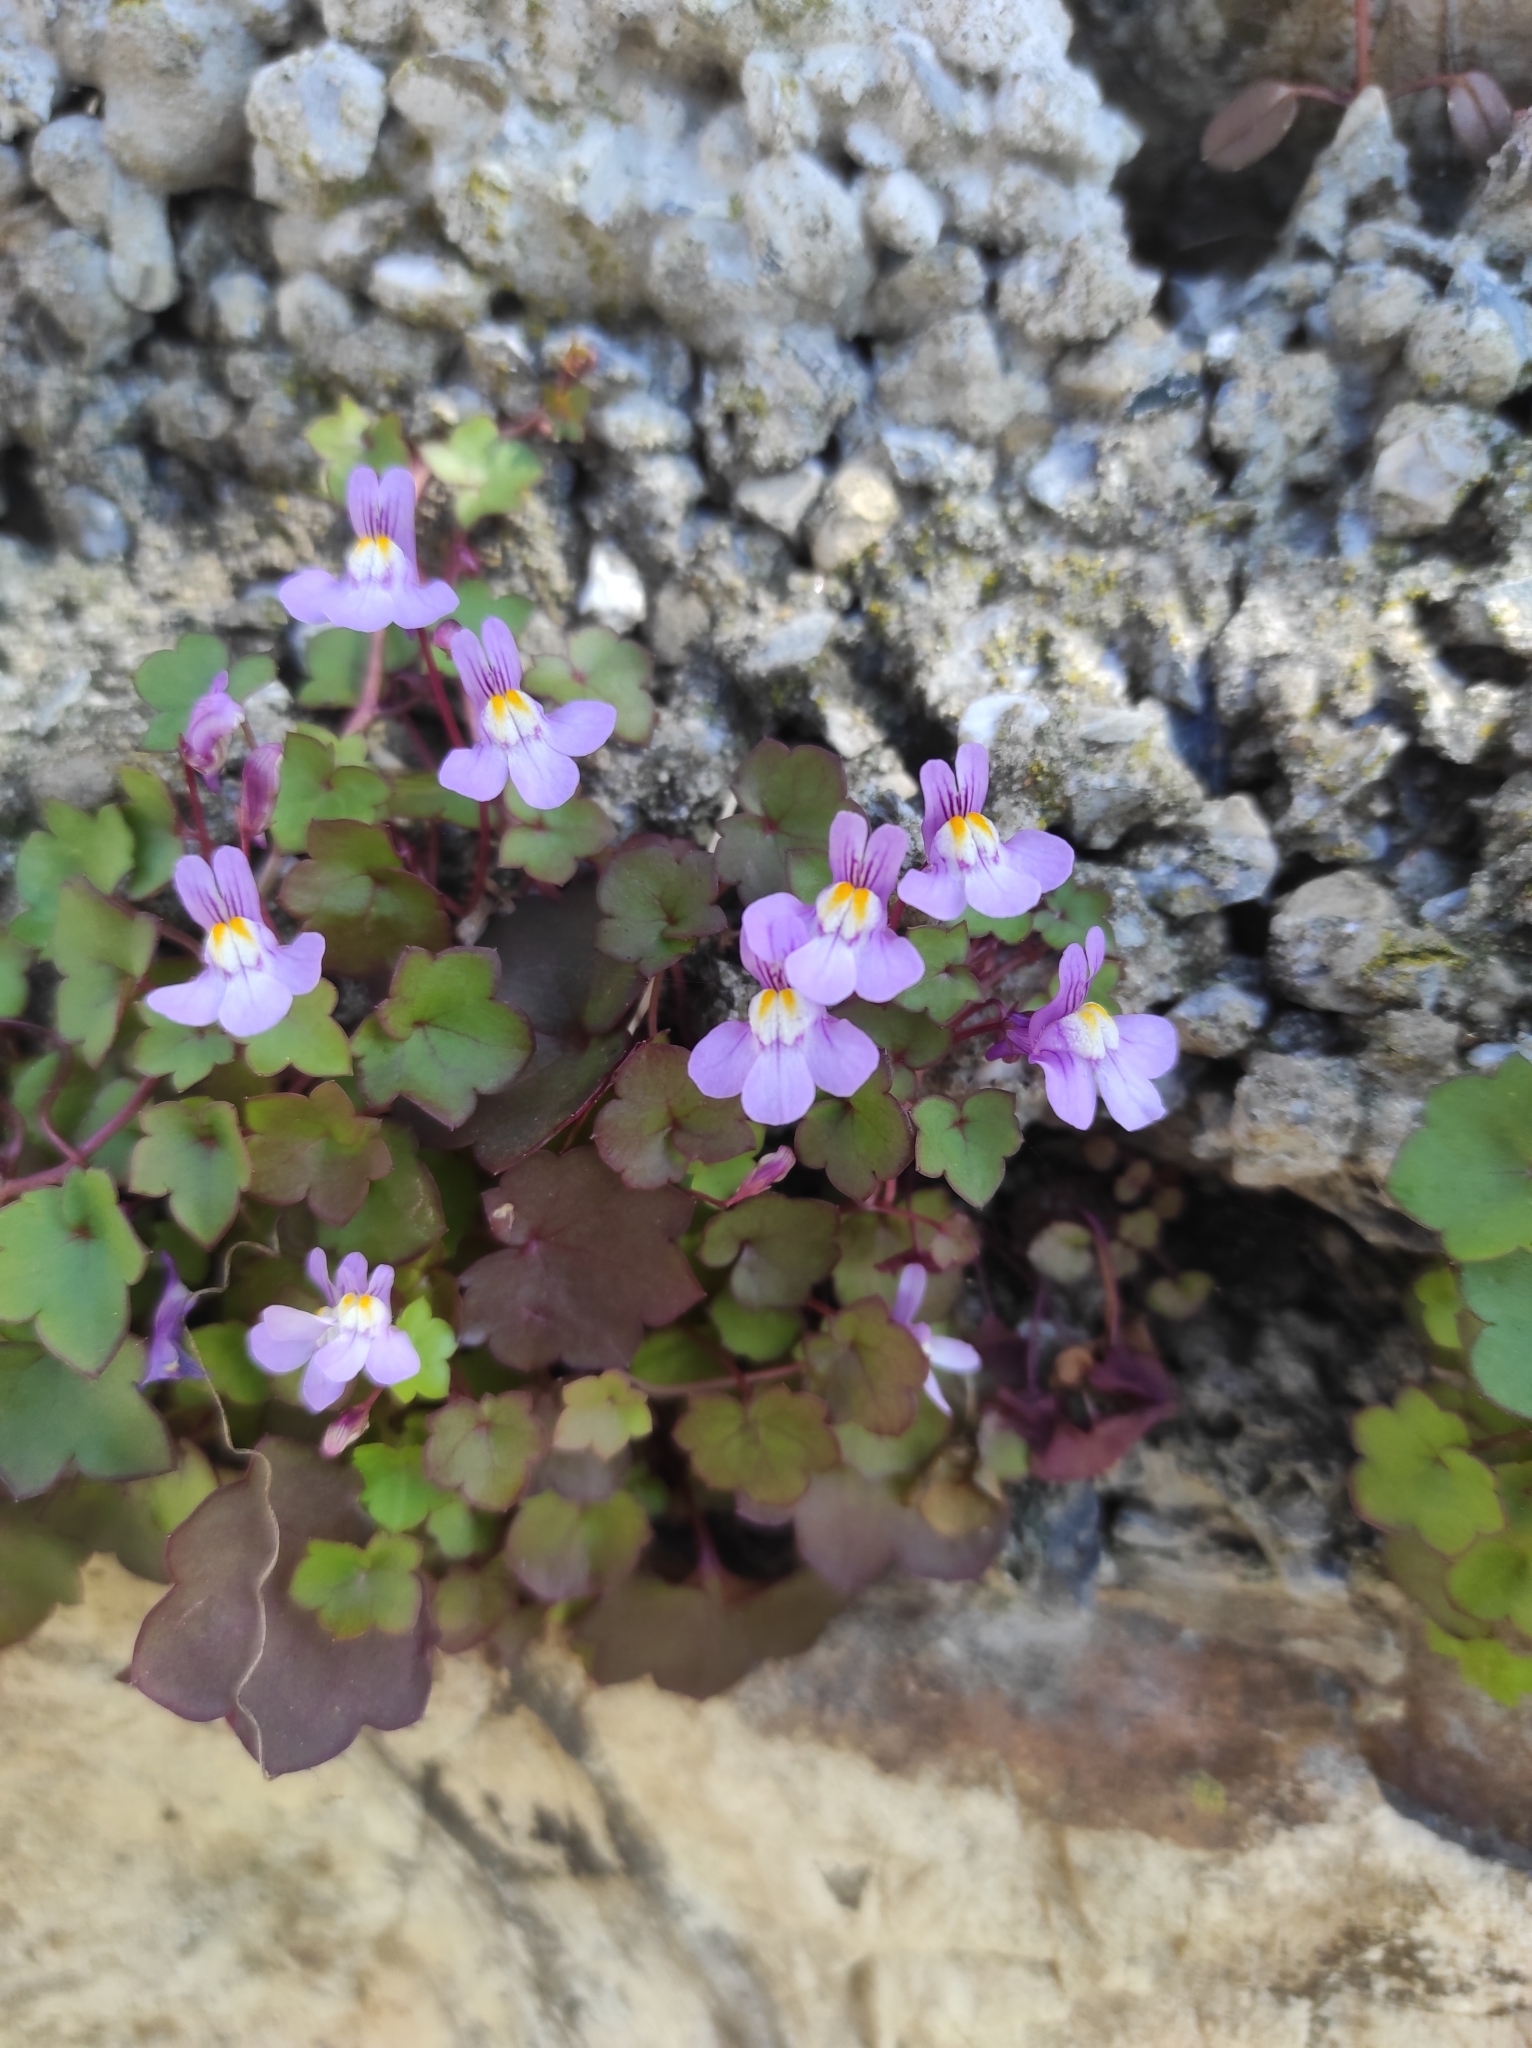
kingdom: Plantae
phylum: Tracheophyta
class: Magnoliopsida
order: Lamiales
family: Plantaginaceae
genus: Cymbalaria
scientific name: Cymbalaria muralis
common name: Ivy-leaved toadflax
